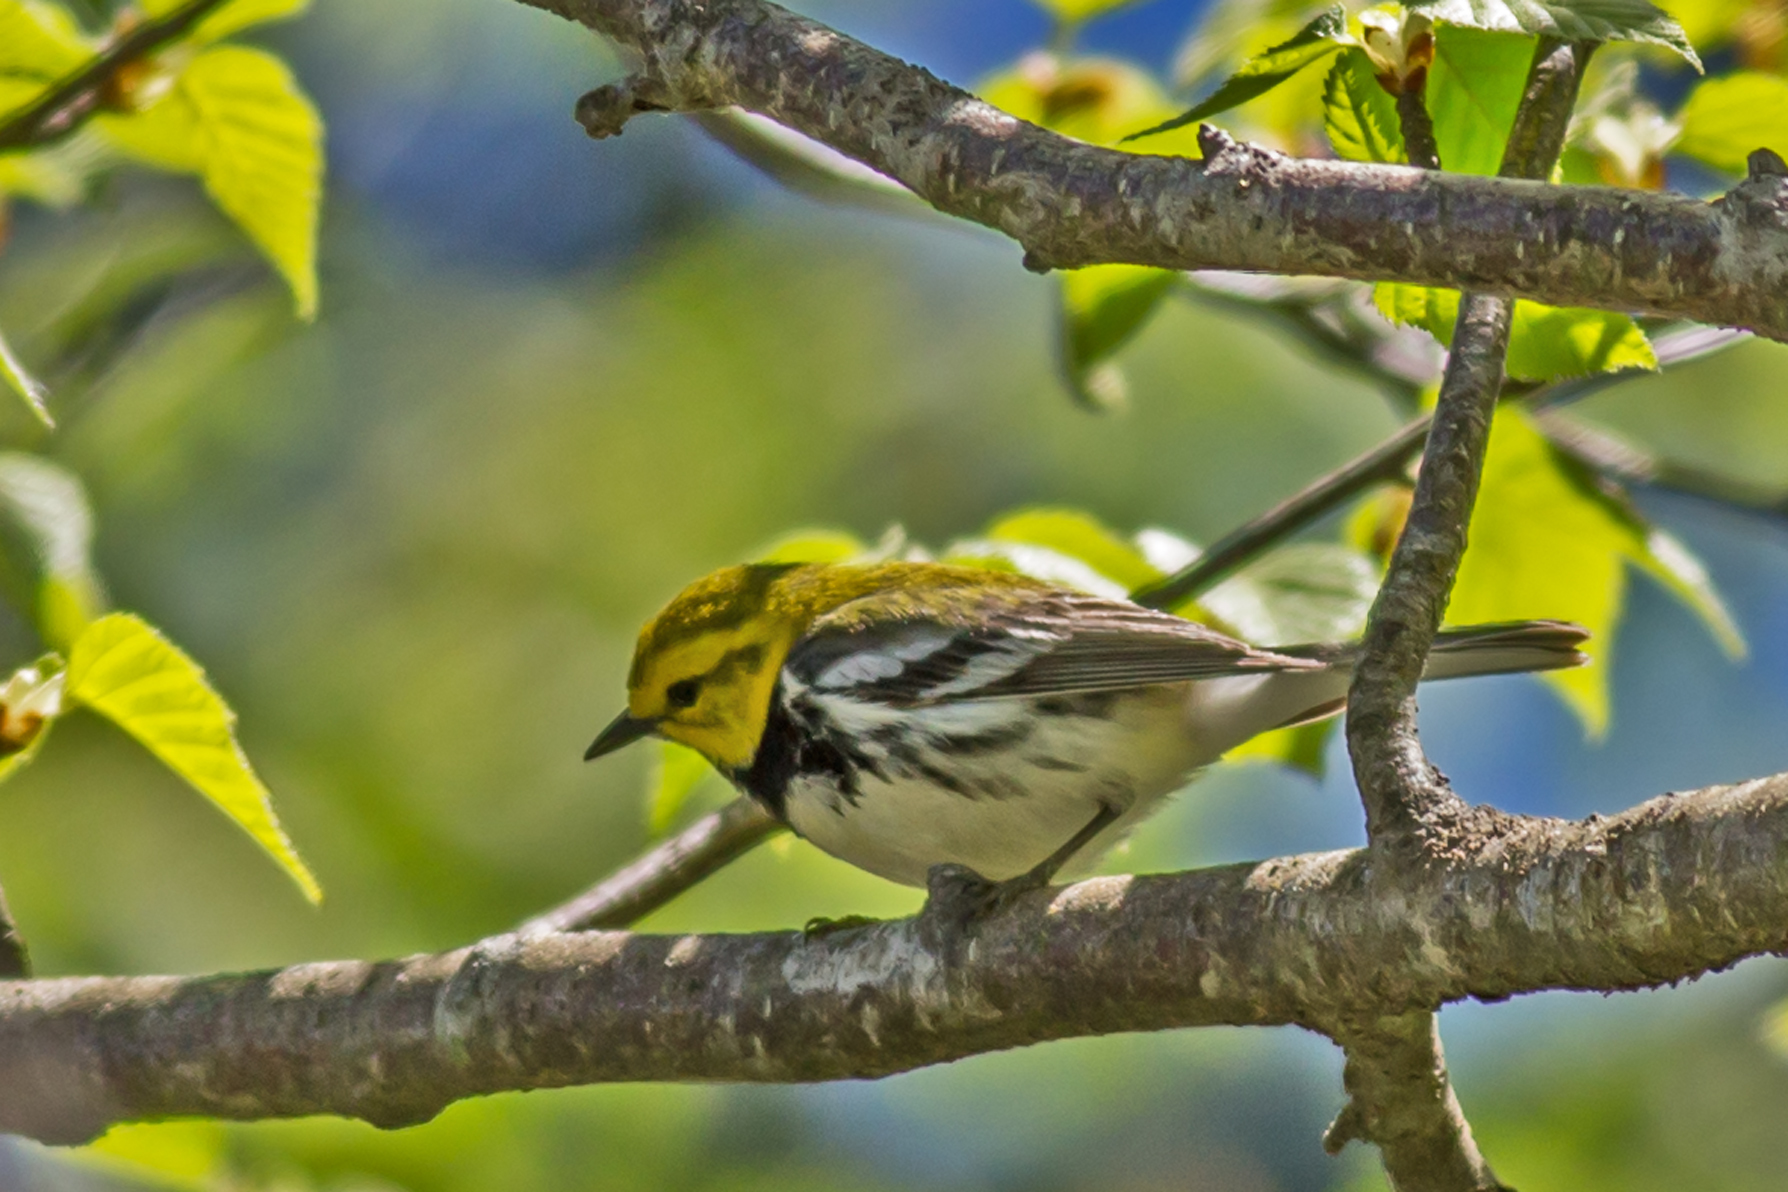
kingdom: Animalia
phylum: Chordata
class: Aves
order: Passeriformes
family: Parulidae
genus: Setophaga
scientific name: Setophaga virens
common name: Black-throated green warbler
